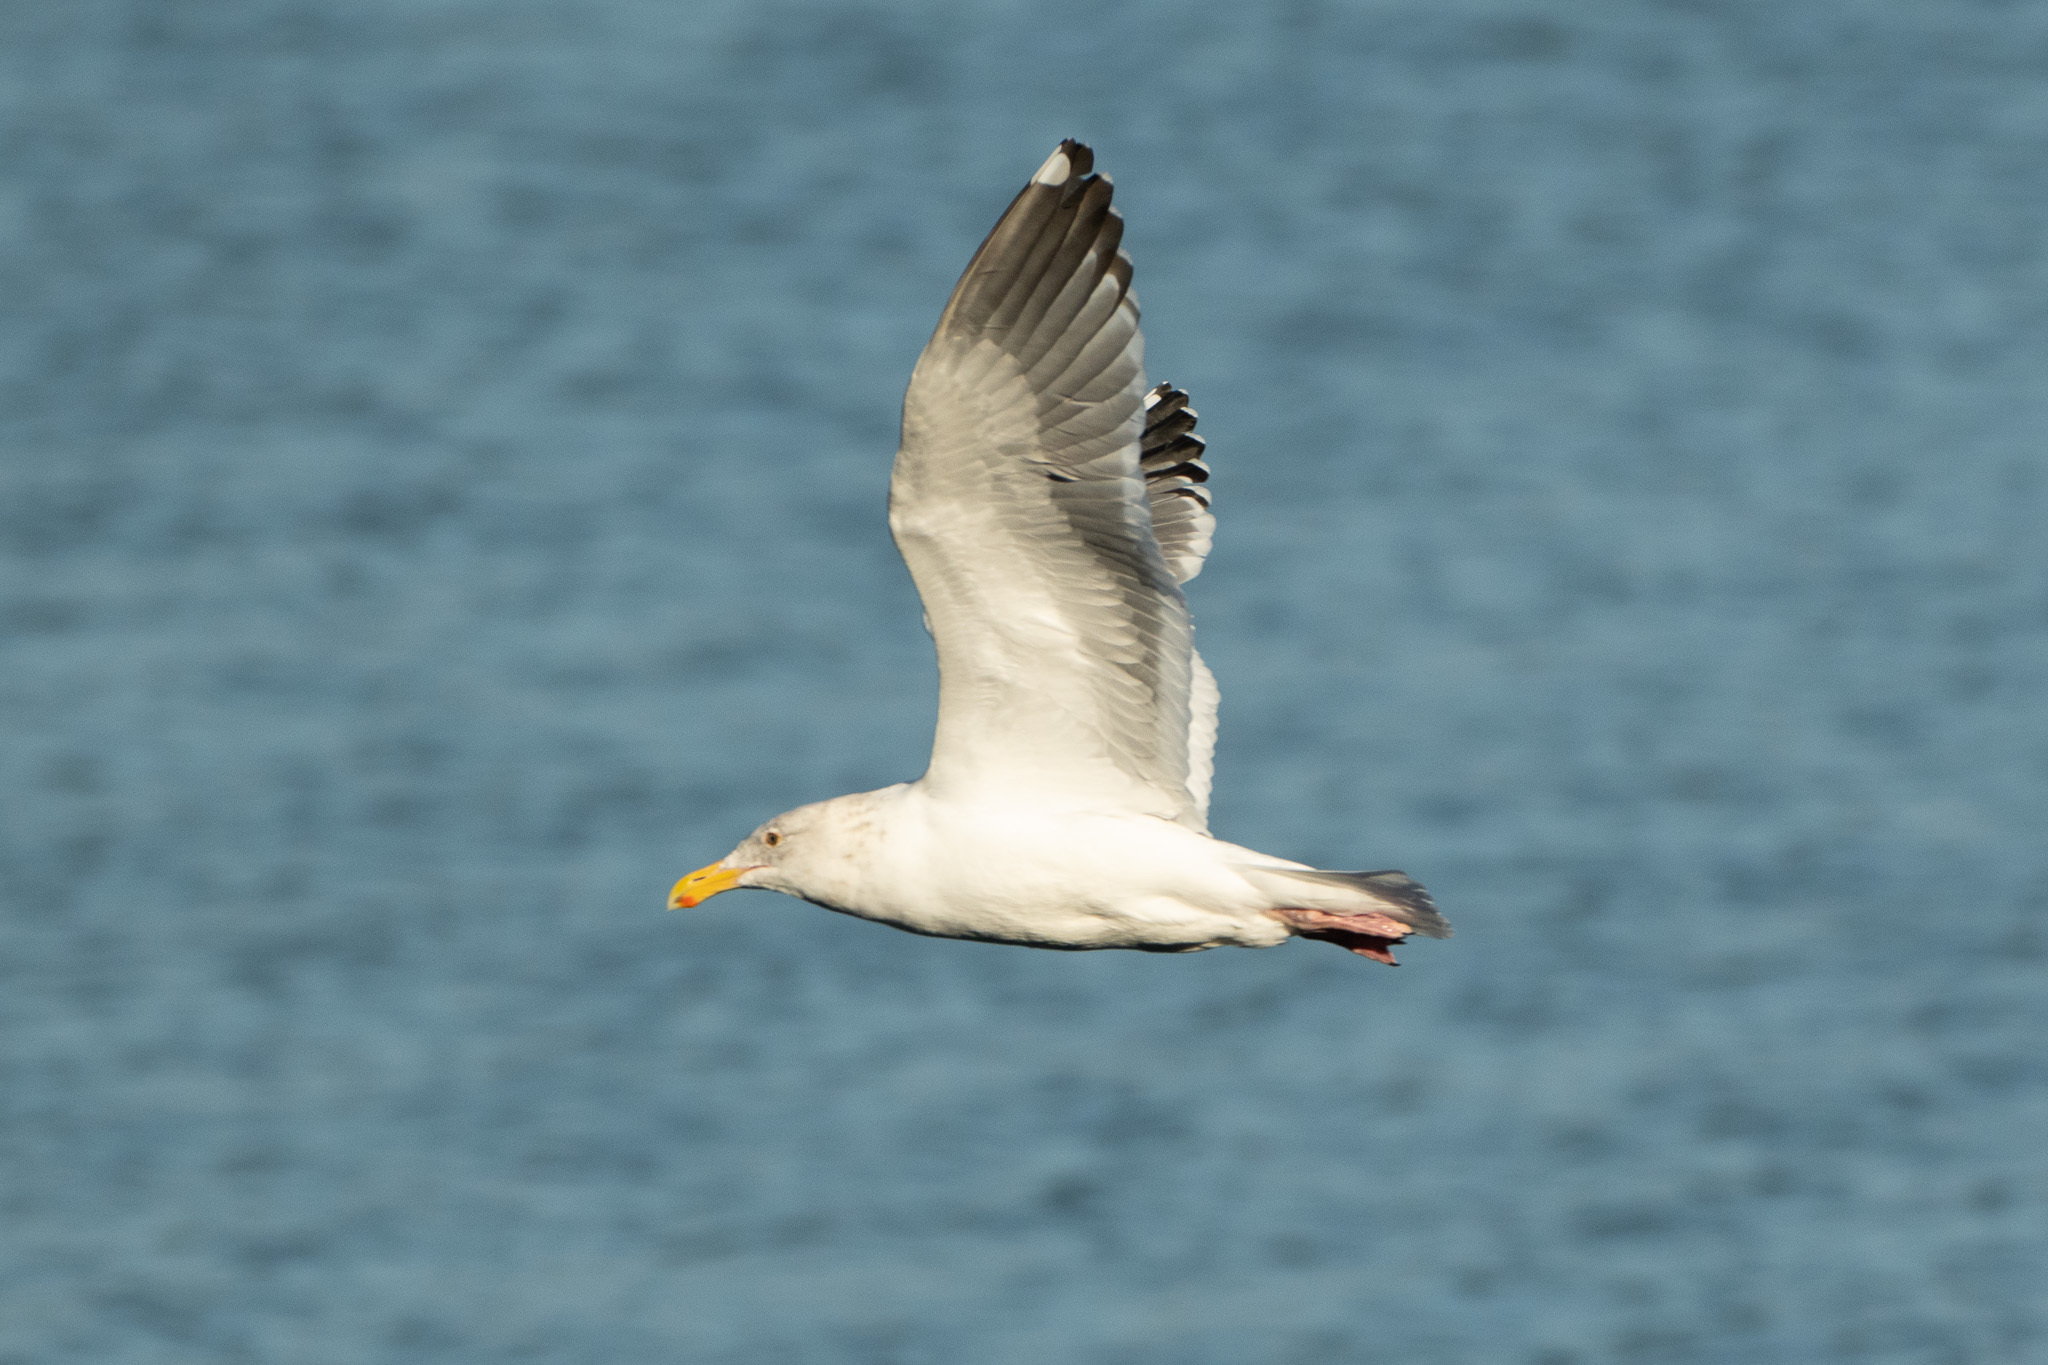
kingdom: Animalia
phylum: Chordata
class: Aves
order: Charadriiformes
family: Laridae
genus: Larus
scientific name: Larus
